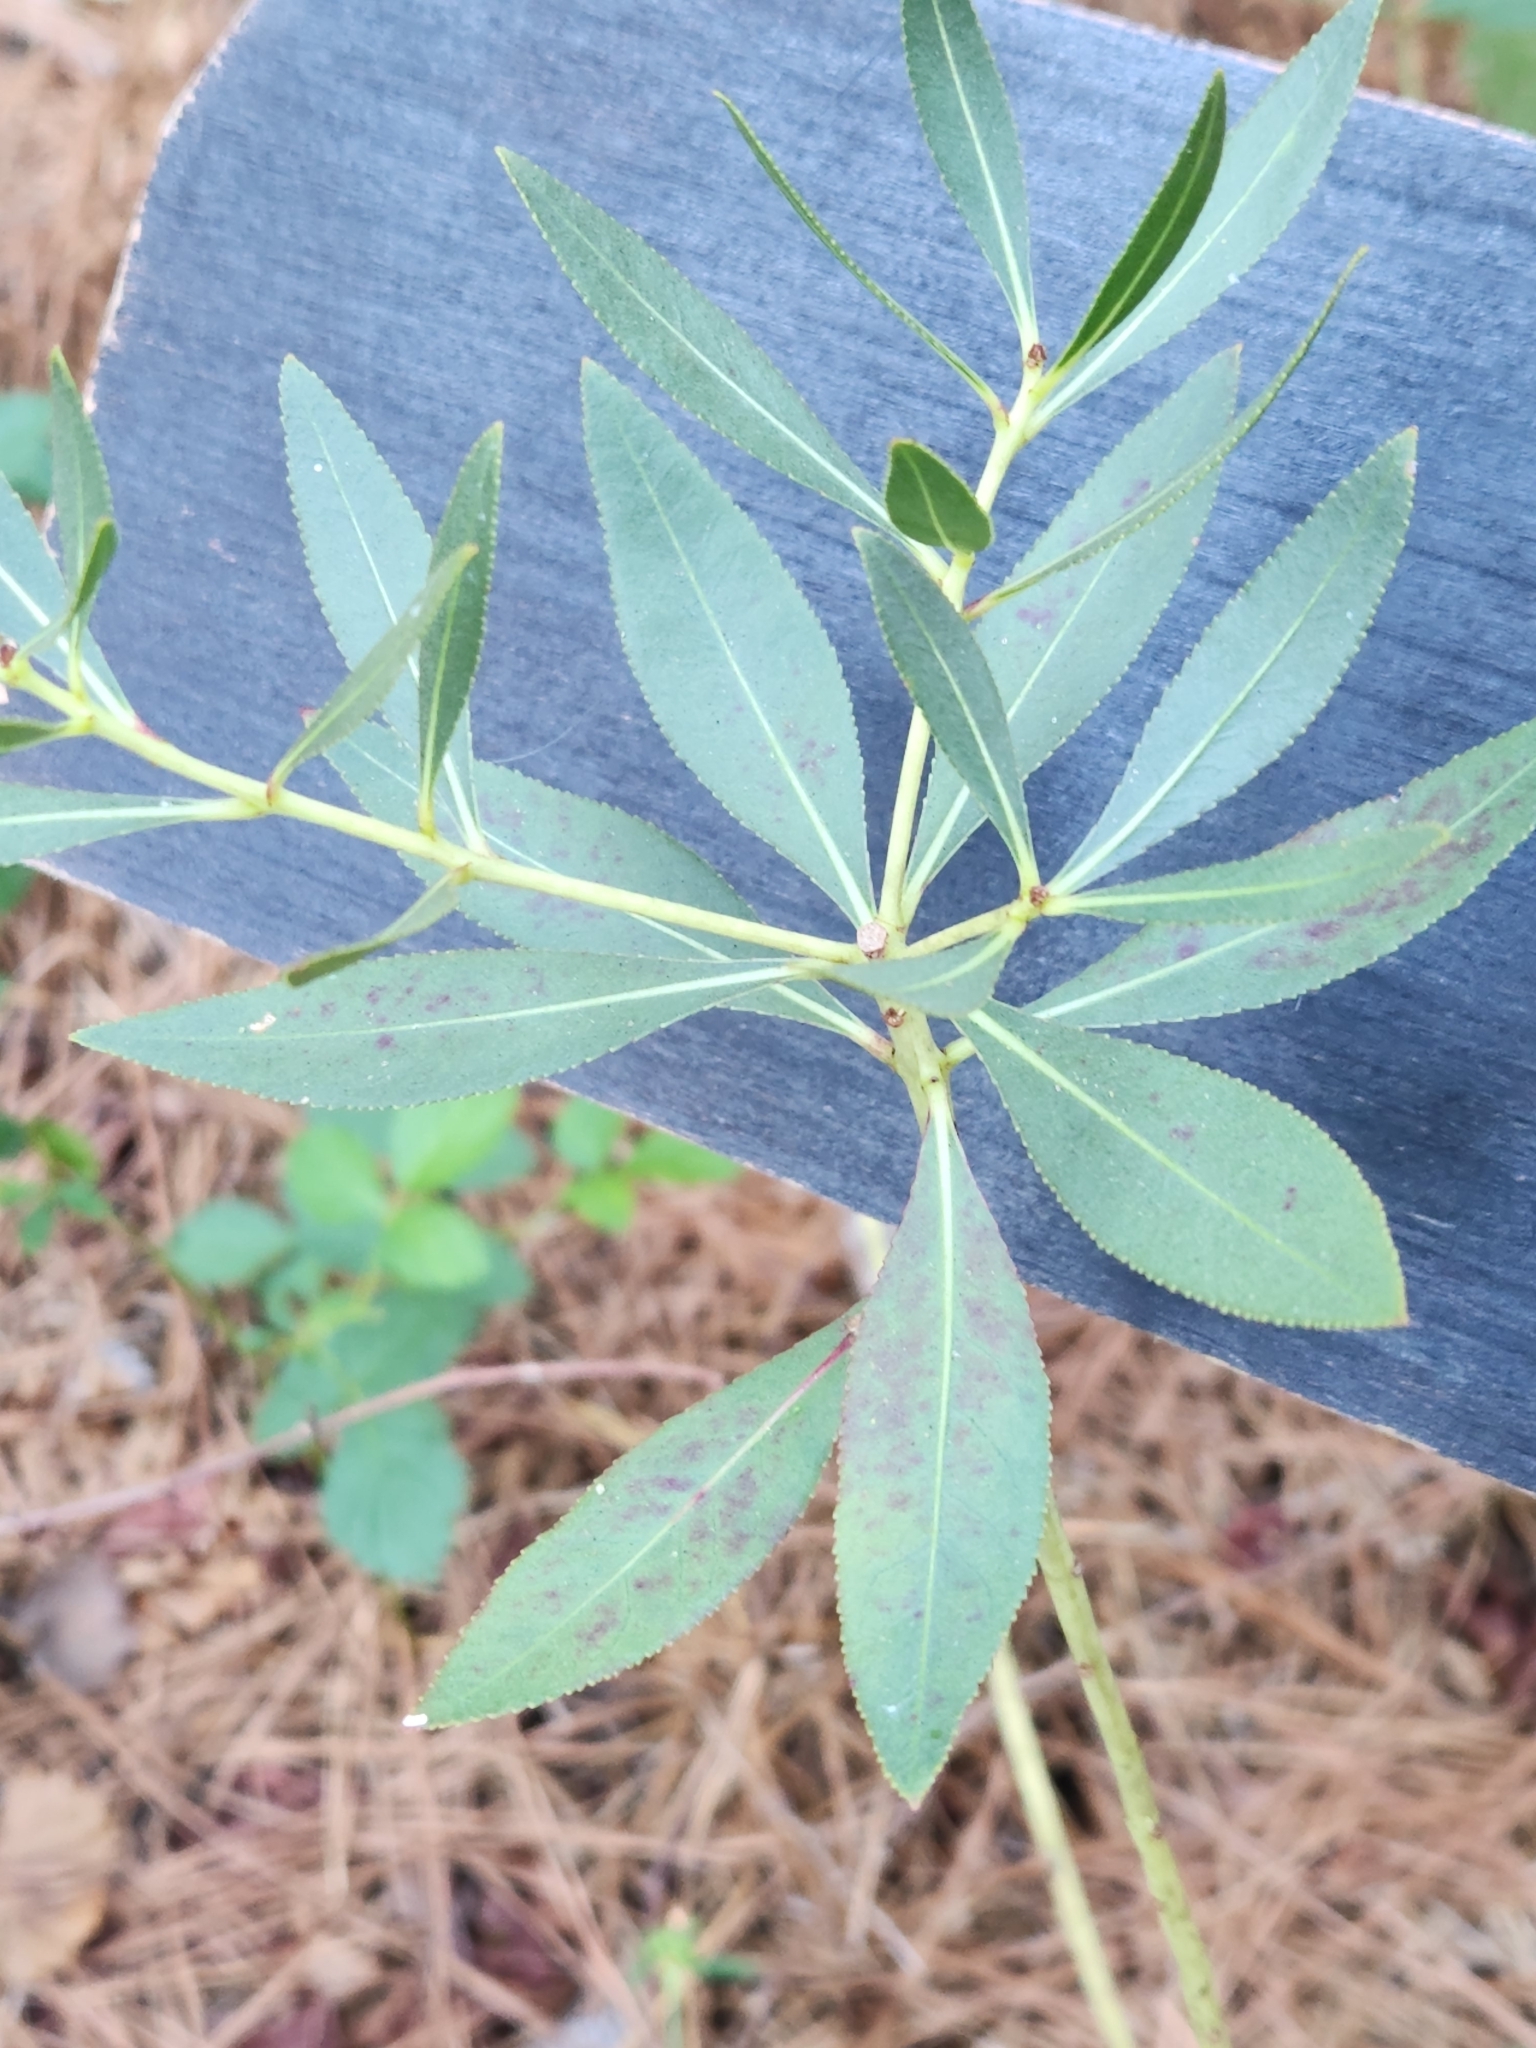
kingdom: Plantae
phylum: Tracheophyta
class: Magnoliopsida
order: Malpighiales
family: Euphorbiaceae
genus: Stillingia
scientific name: Stillingia sylvatica
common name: Queen's-delight
